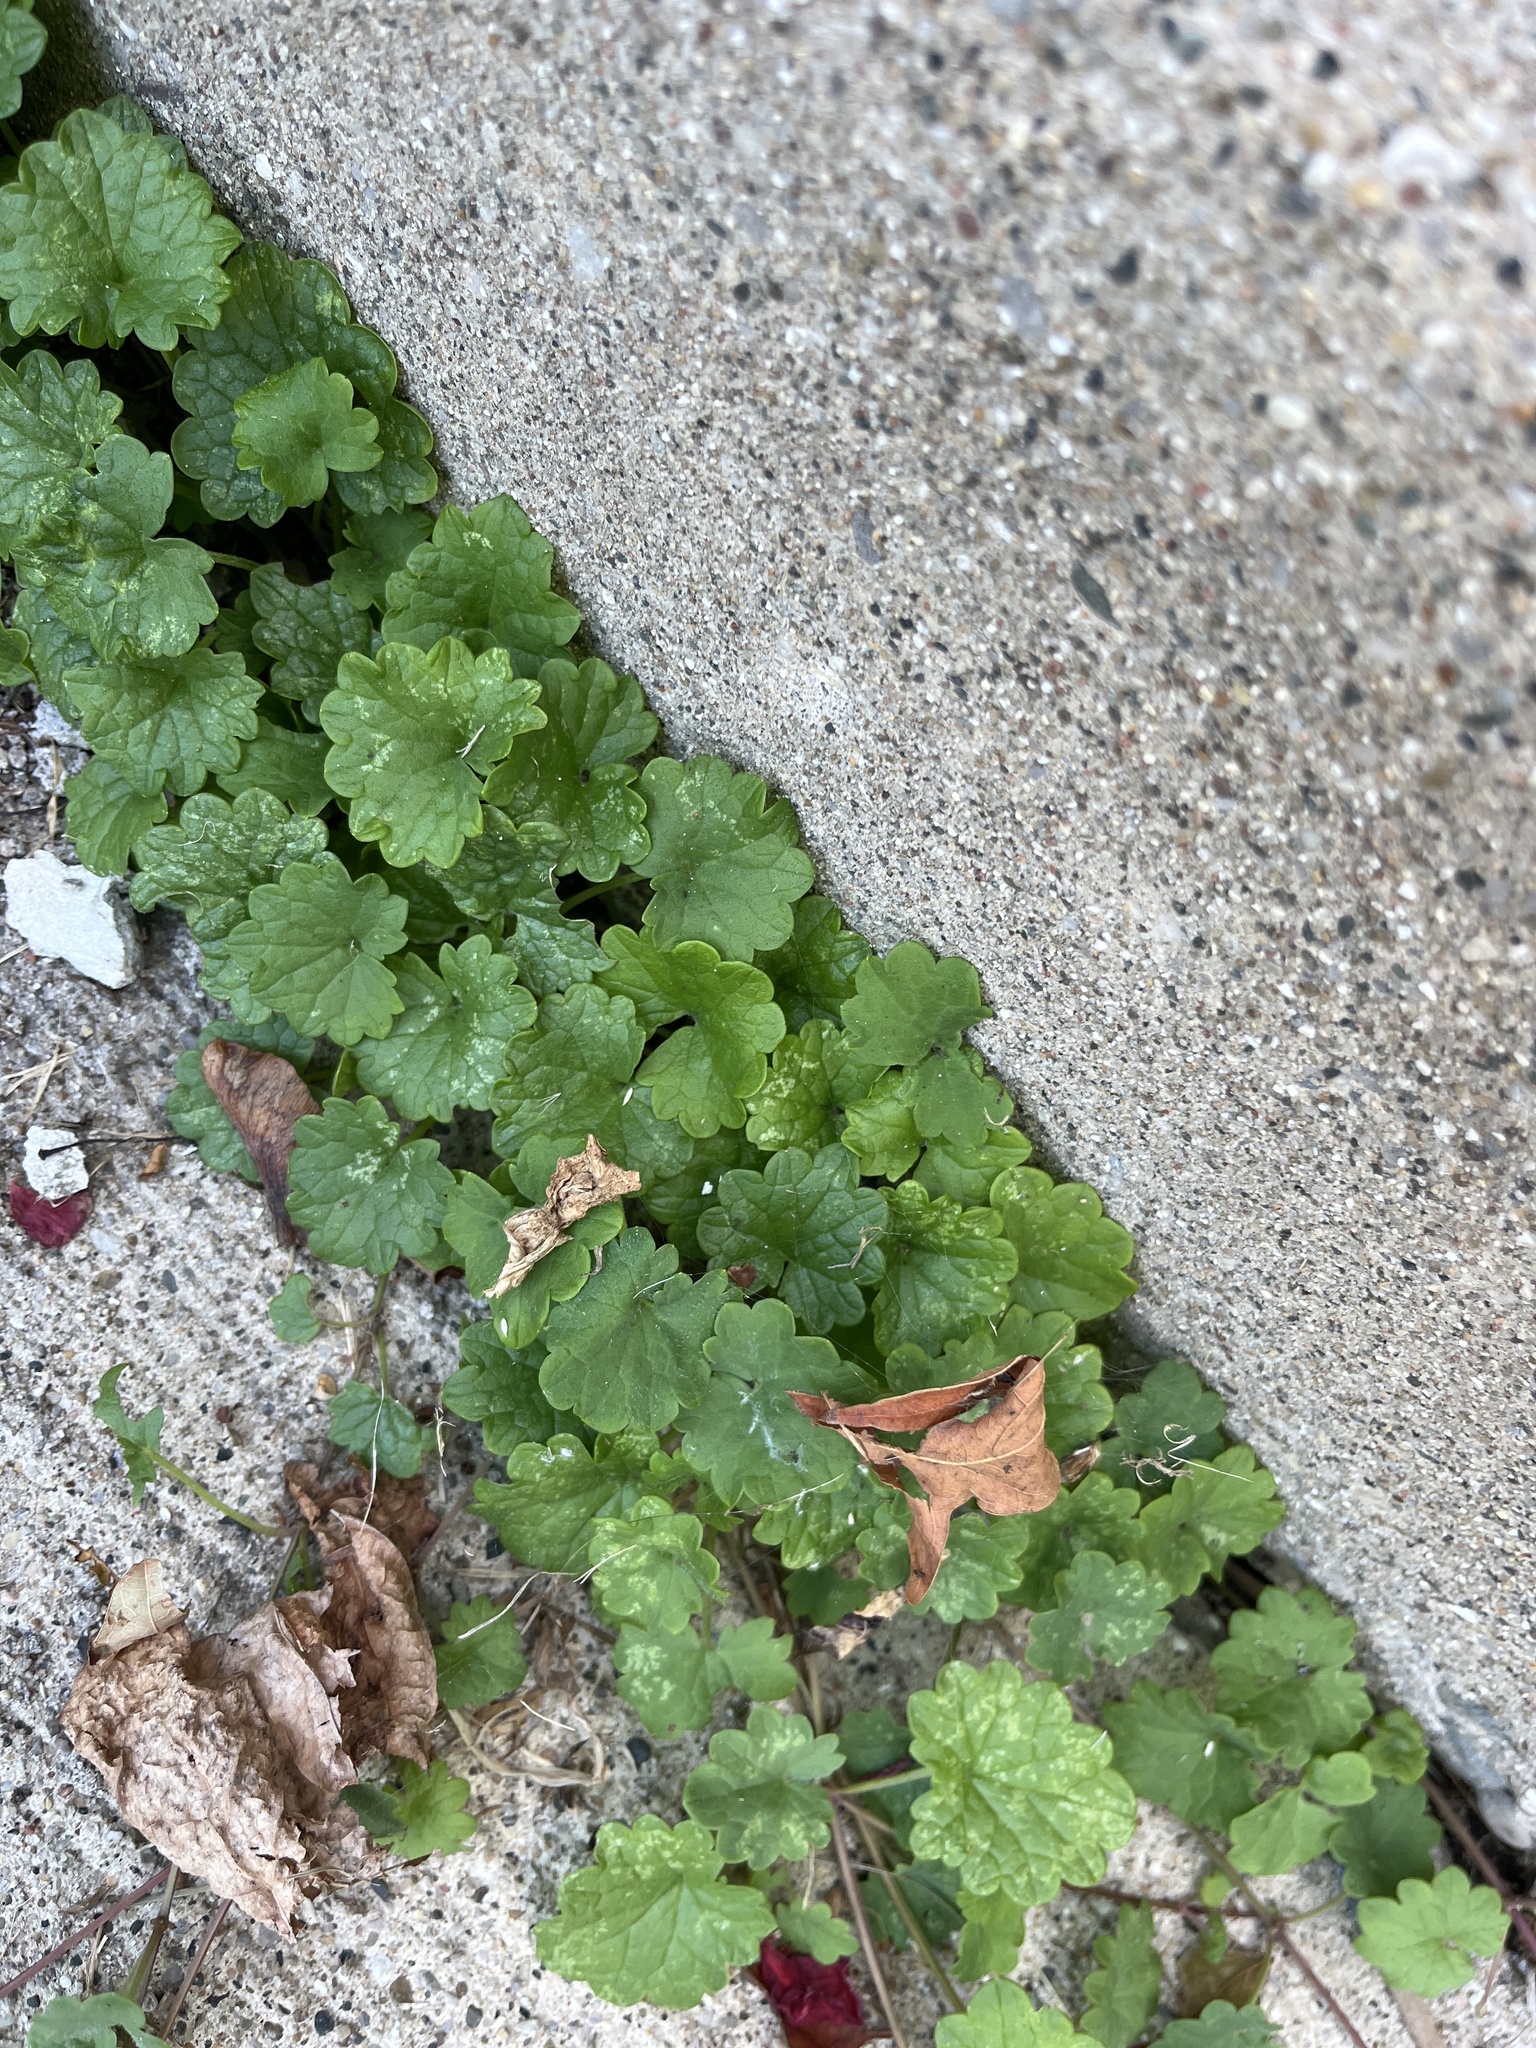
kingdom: Plantae
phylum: Tracheophyta
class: Magnoliopsida
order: Lamiales
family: Lamiaceae
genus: Glechoma
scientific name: Glechoma hederacea
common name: Ground ivy
